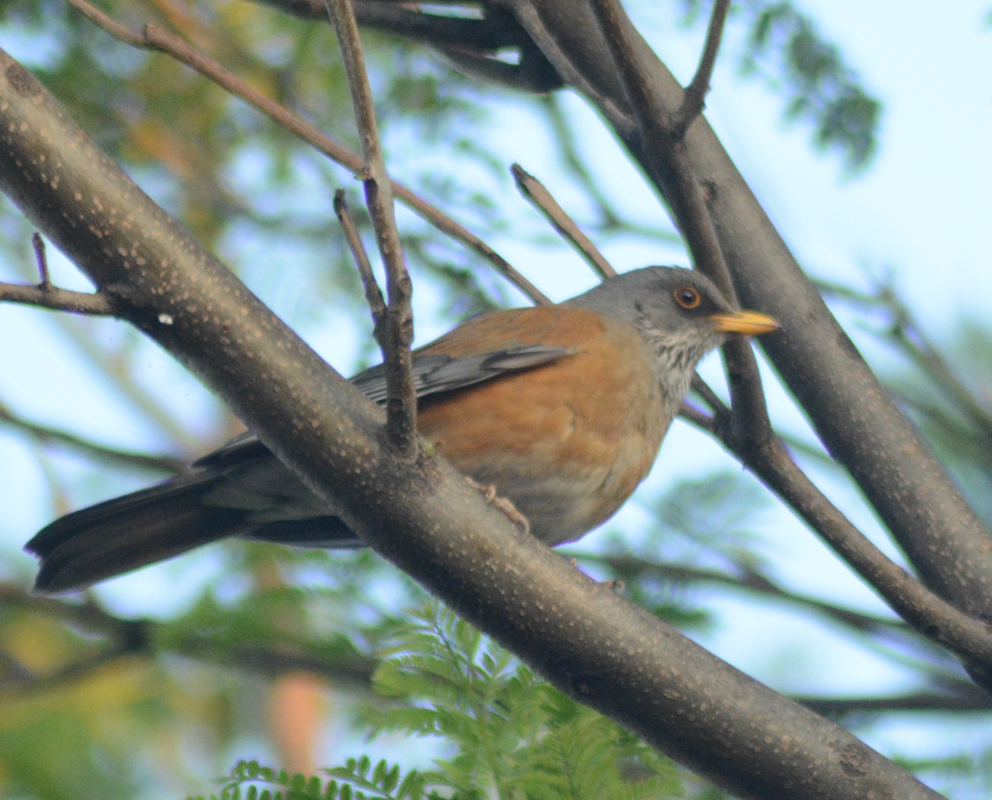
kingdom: Animalia
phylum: Chordata
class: Aves
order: Passeriformes
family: Turdidae
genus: Turdus
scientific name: Turdus rufopalliatus
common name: Rufous-backed robin
